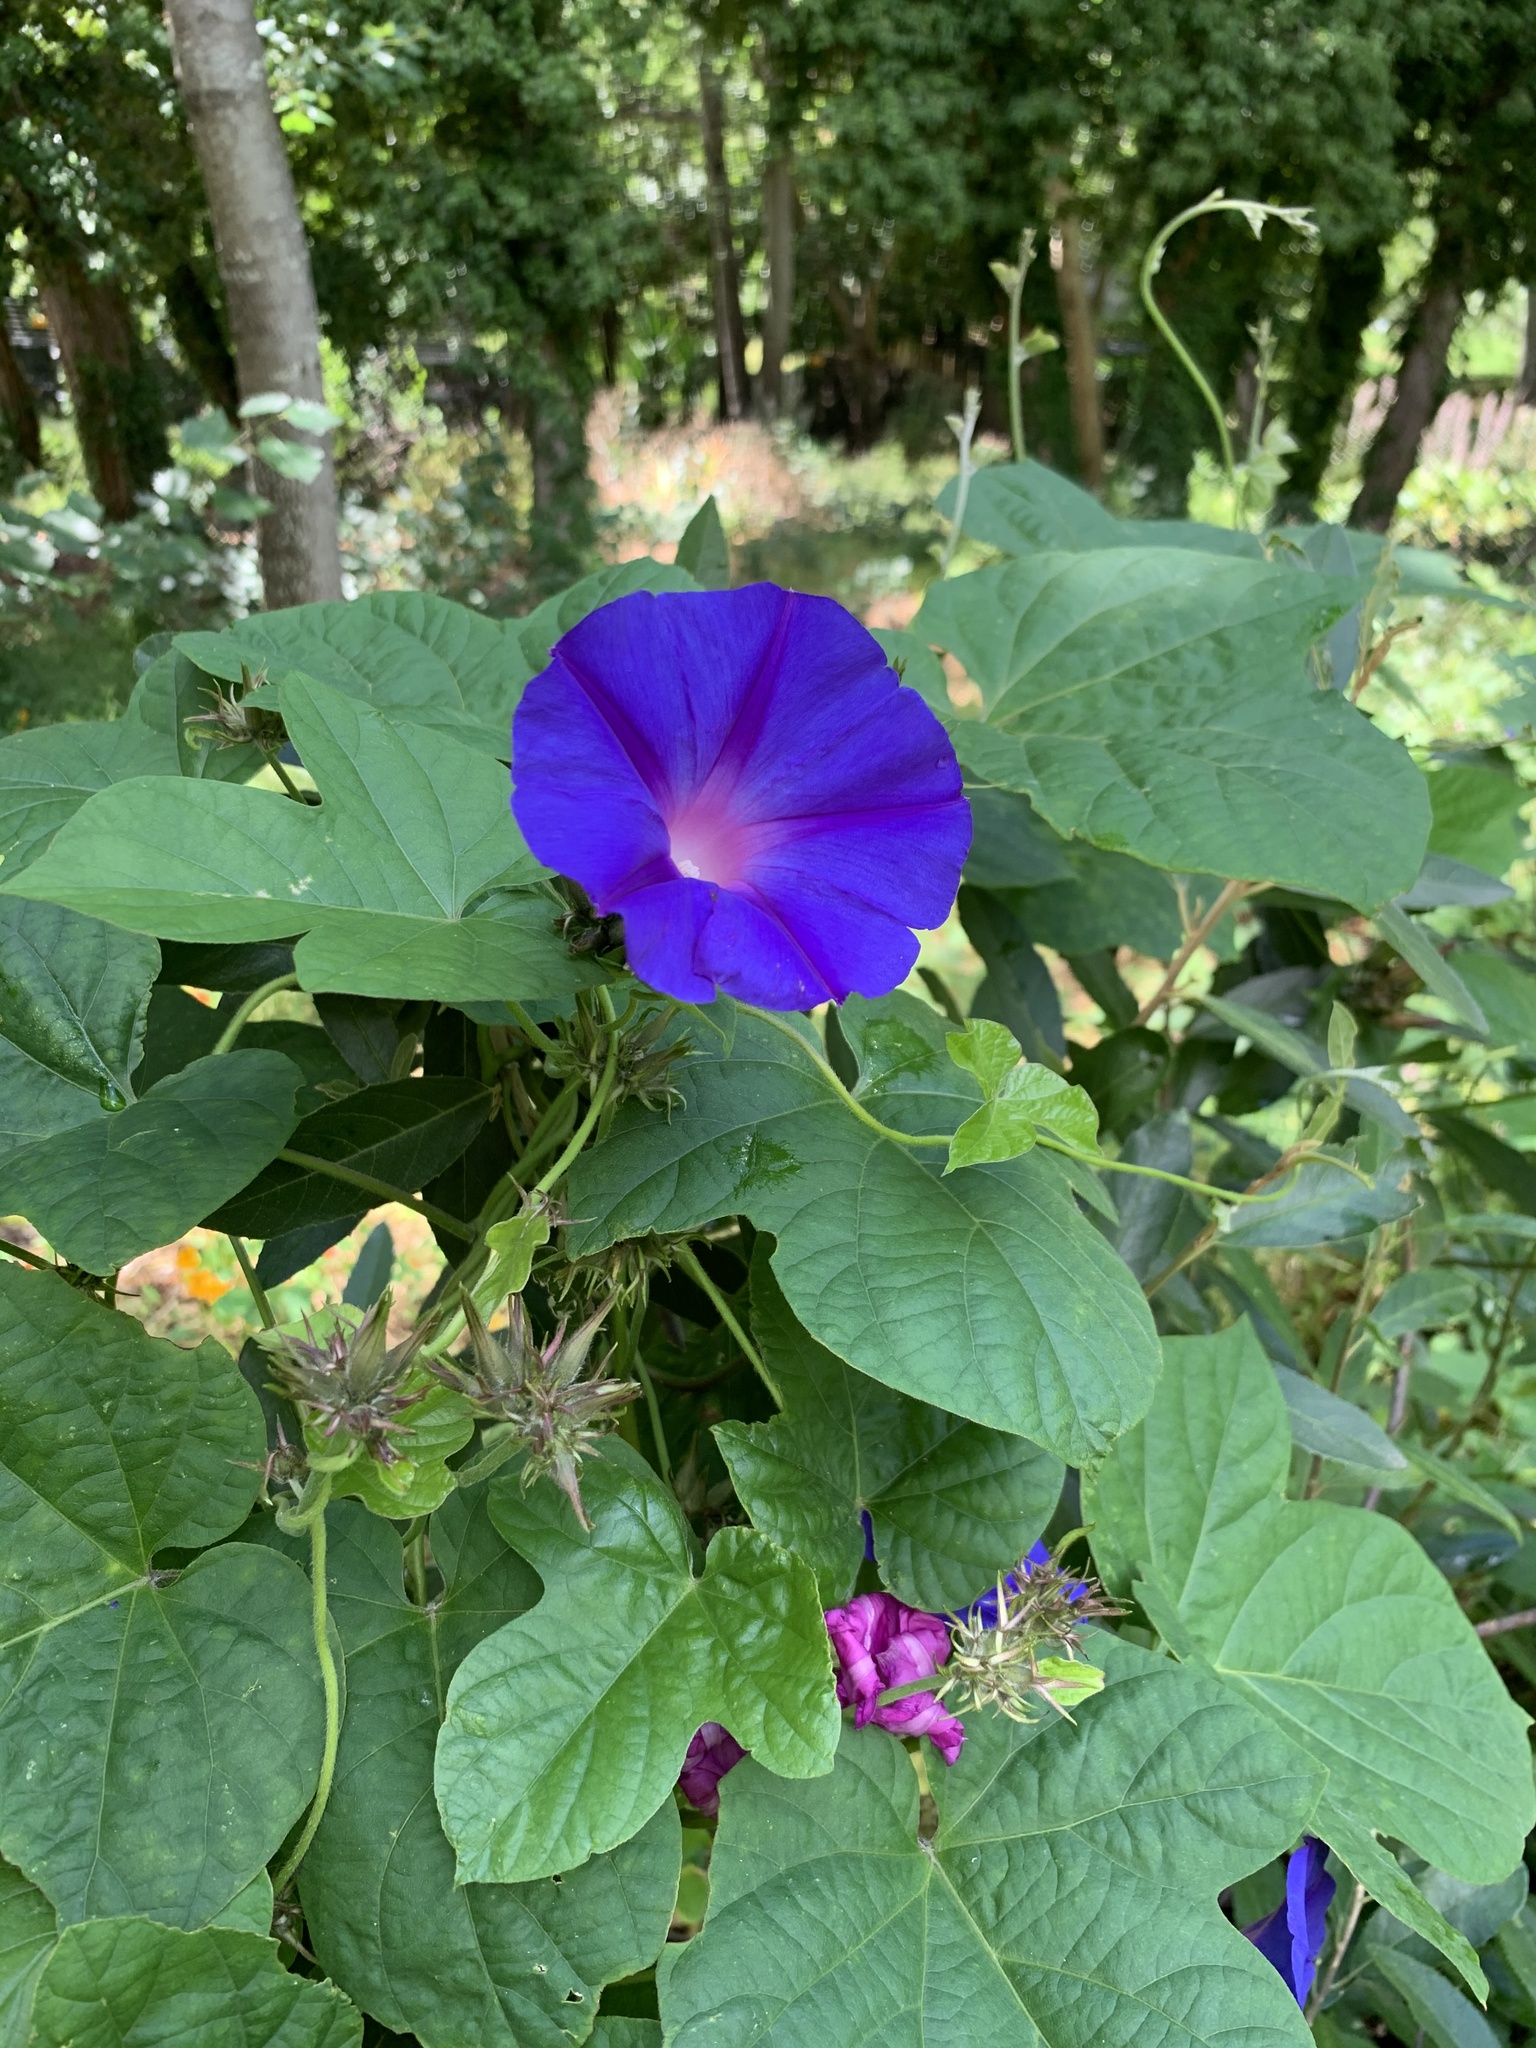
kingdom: Plantae
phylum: Tracheophyta
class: Magnoliopsida
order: Solanales
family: Convolvulaceae
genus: Ipomoea
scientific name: Ipomoea indica
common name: Blue dawnflower
